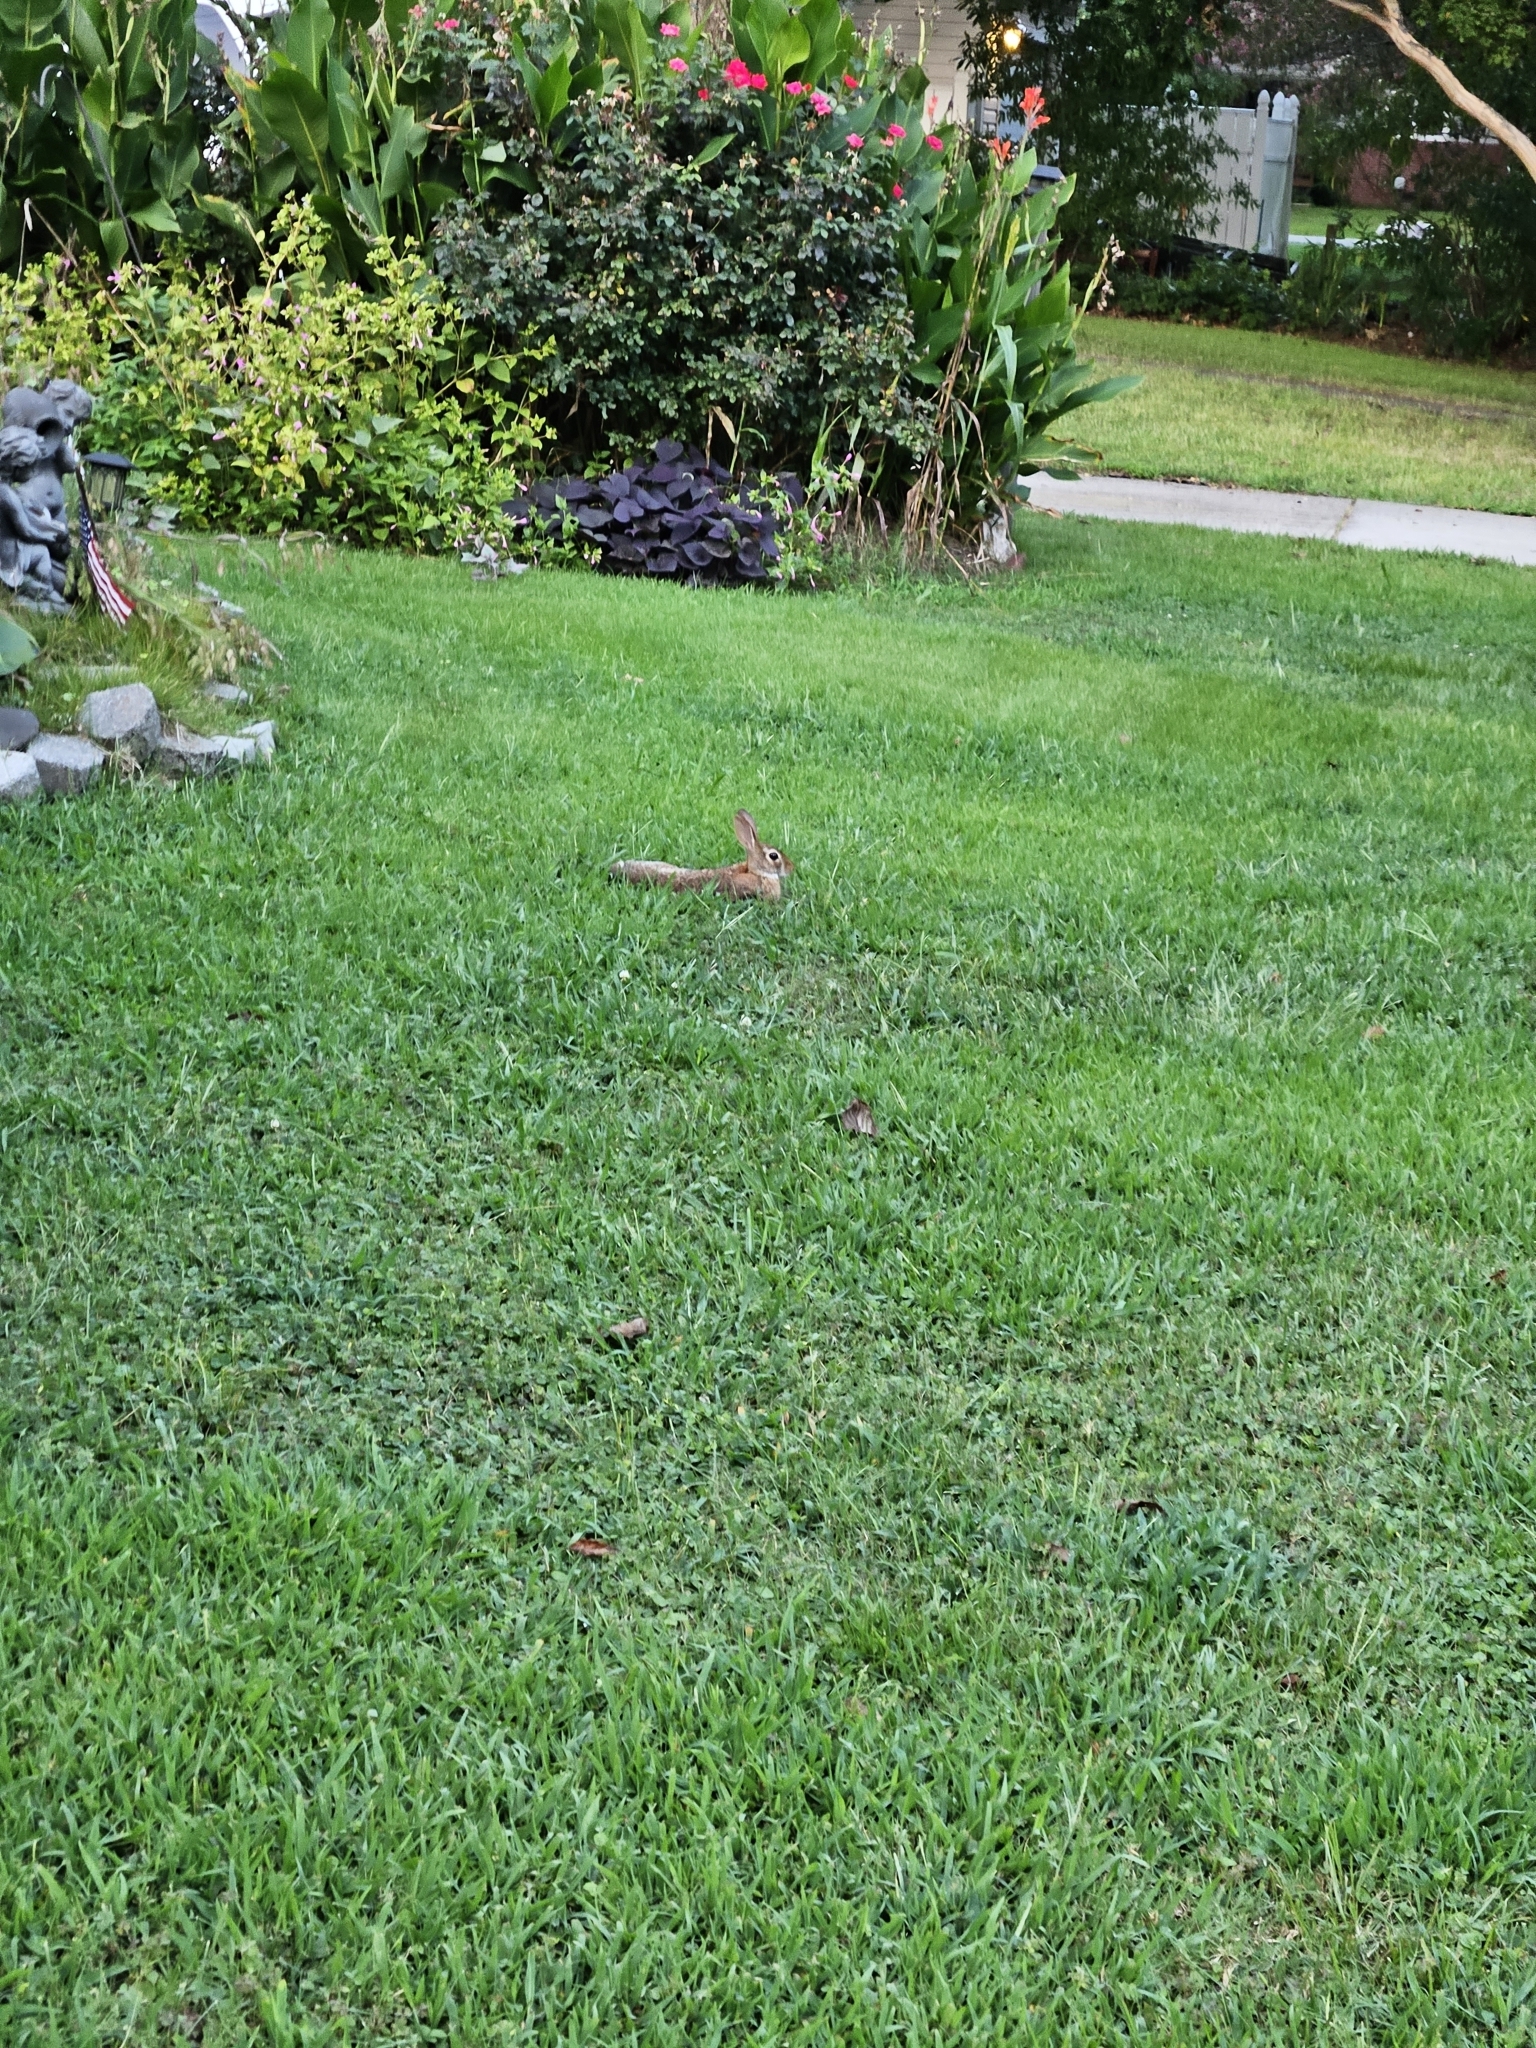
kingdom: Animalia
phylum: Chordata
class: Mammalia
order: Lagomorpha
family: Leporidae
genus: Sylvilagus
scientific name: Sylvilagus floridanus
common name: Eastern cottontail
